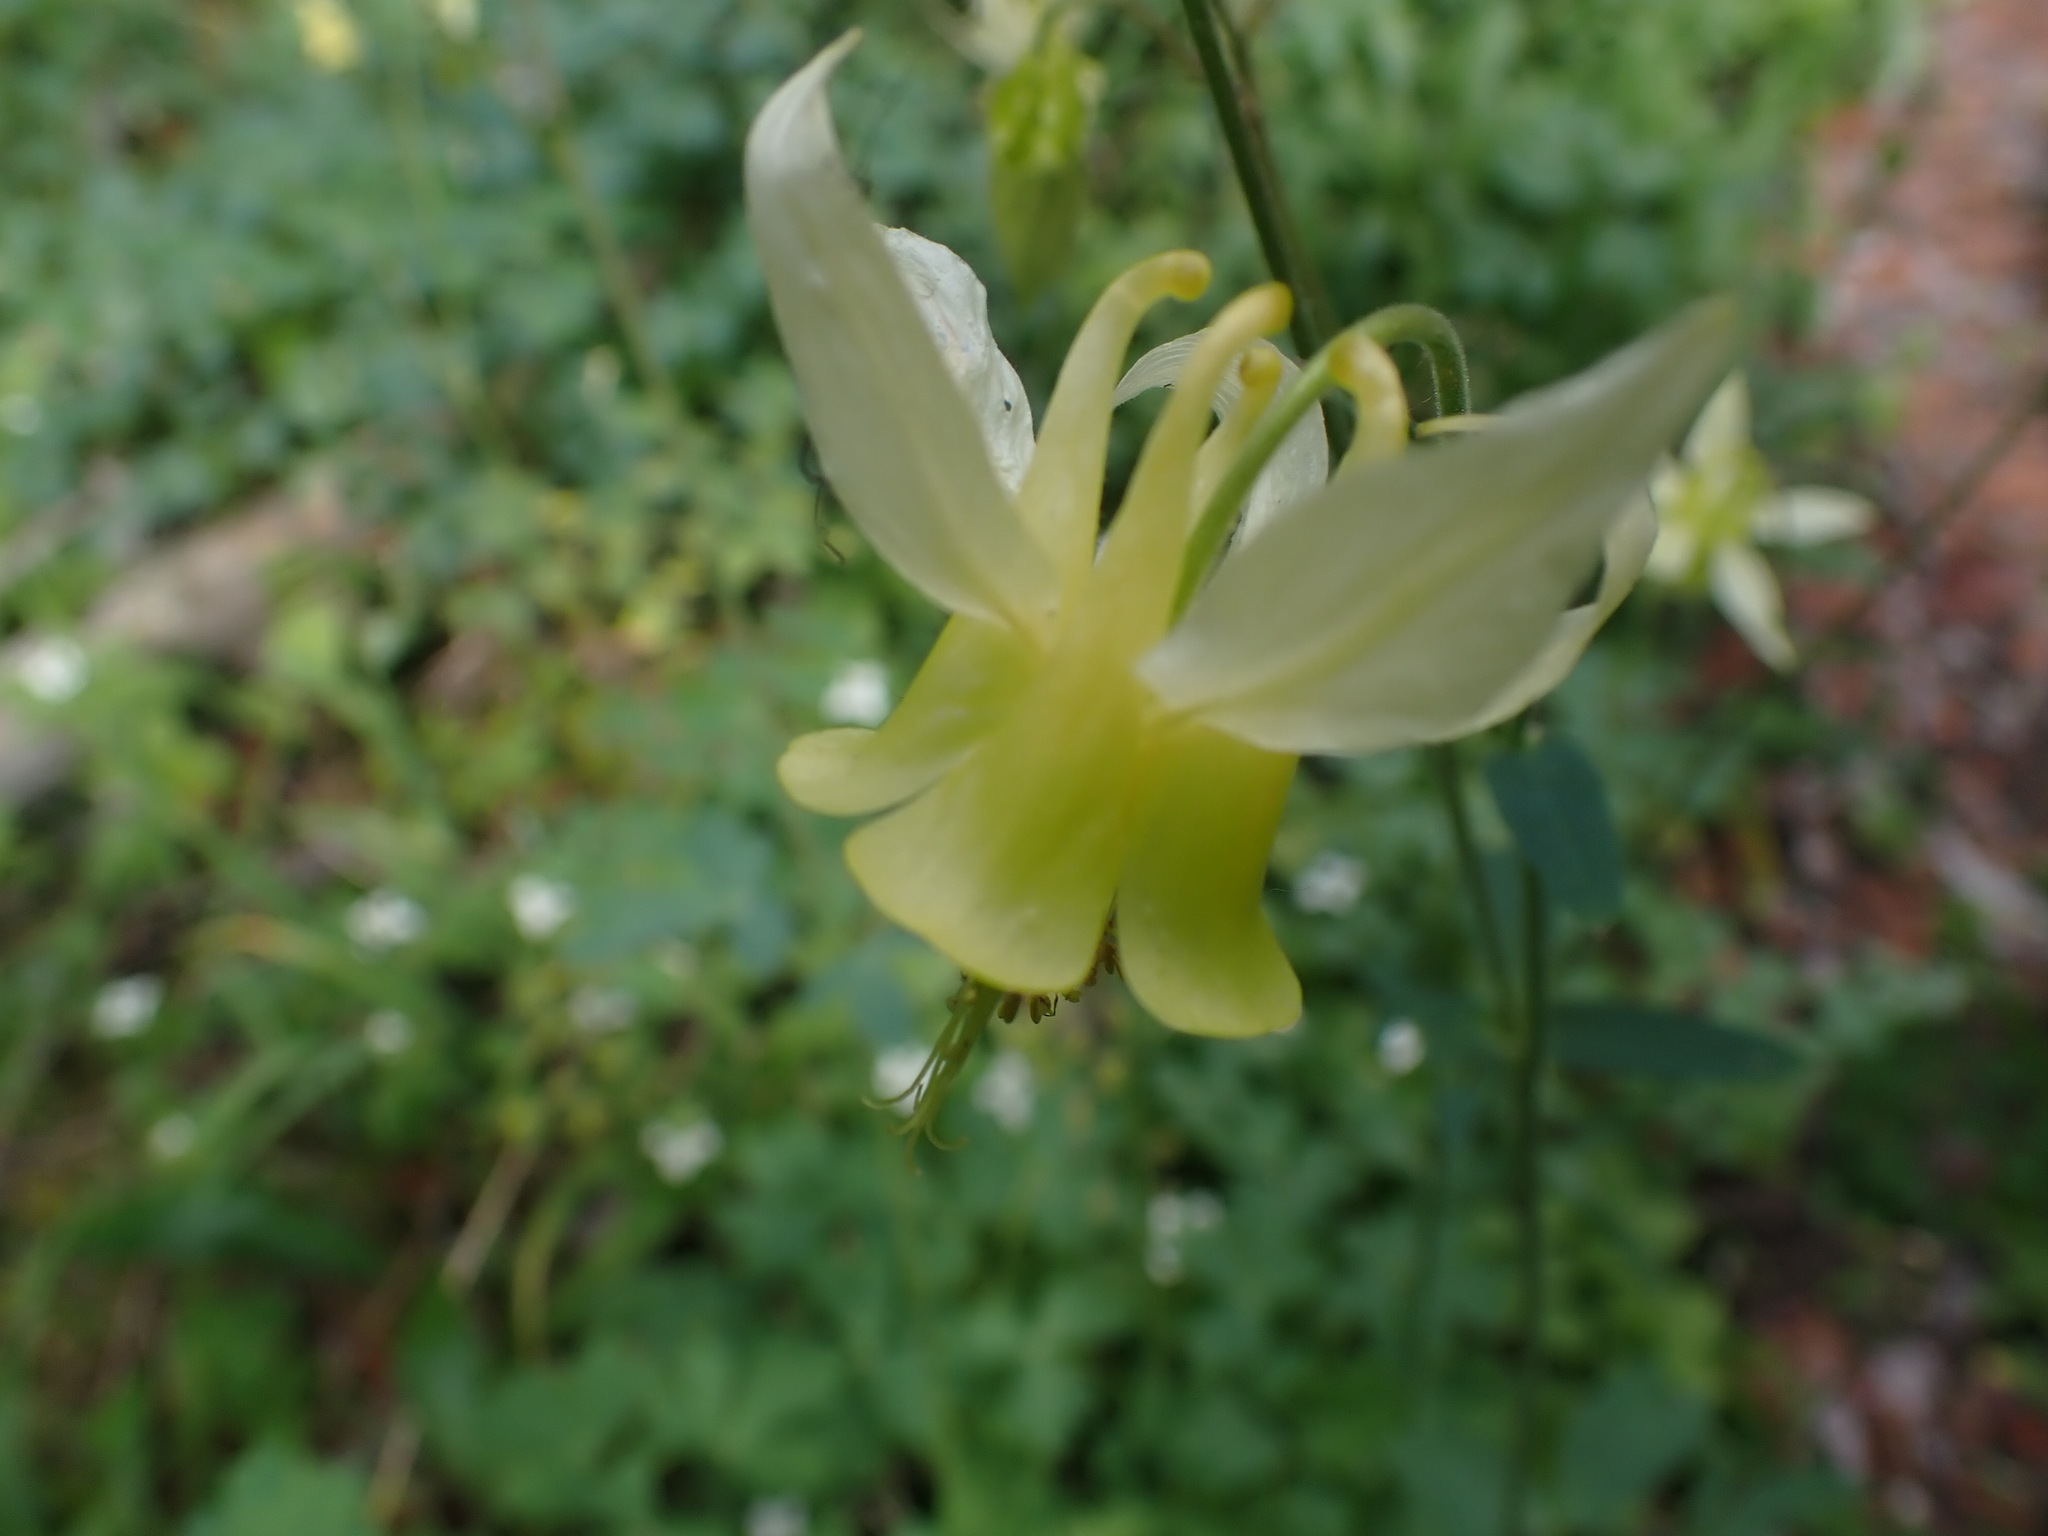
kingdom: Plantae
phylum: Tracheophyta
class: Magnoliopsida
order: Ranunculales
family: Ranunculaceae
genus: Aquilegia
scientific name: Aquilegia flavescens
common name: Yellow columbine
